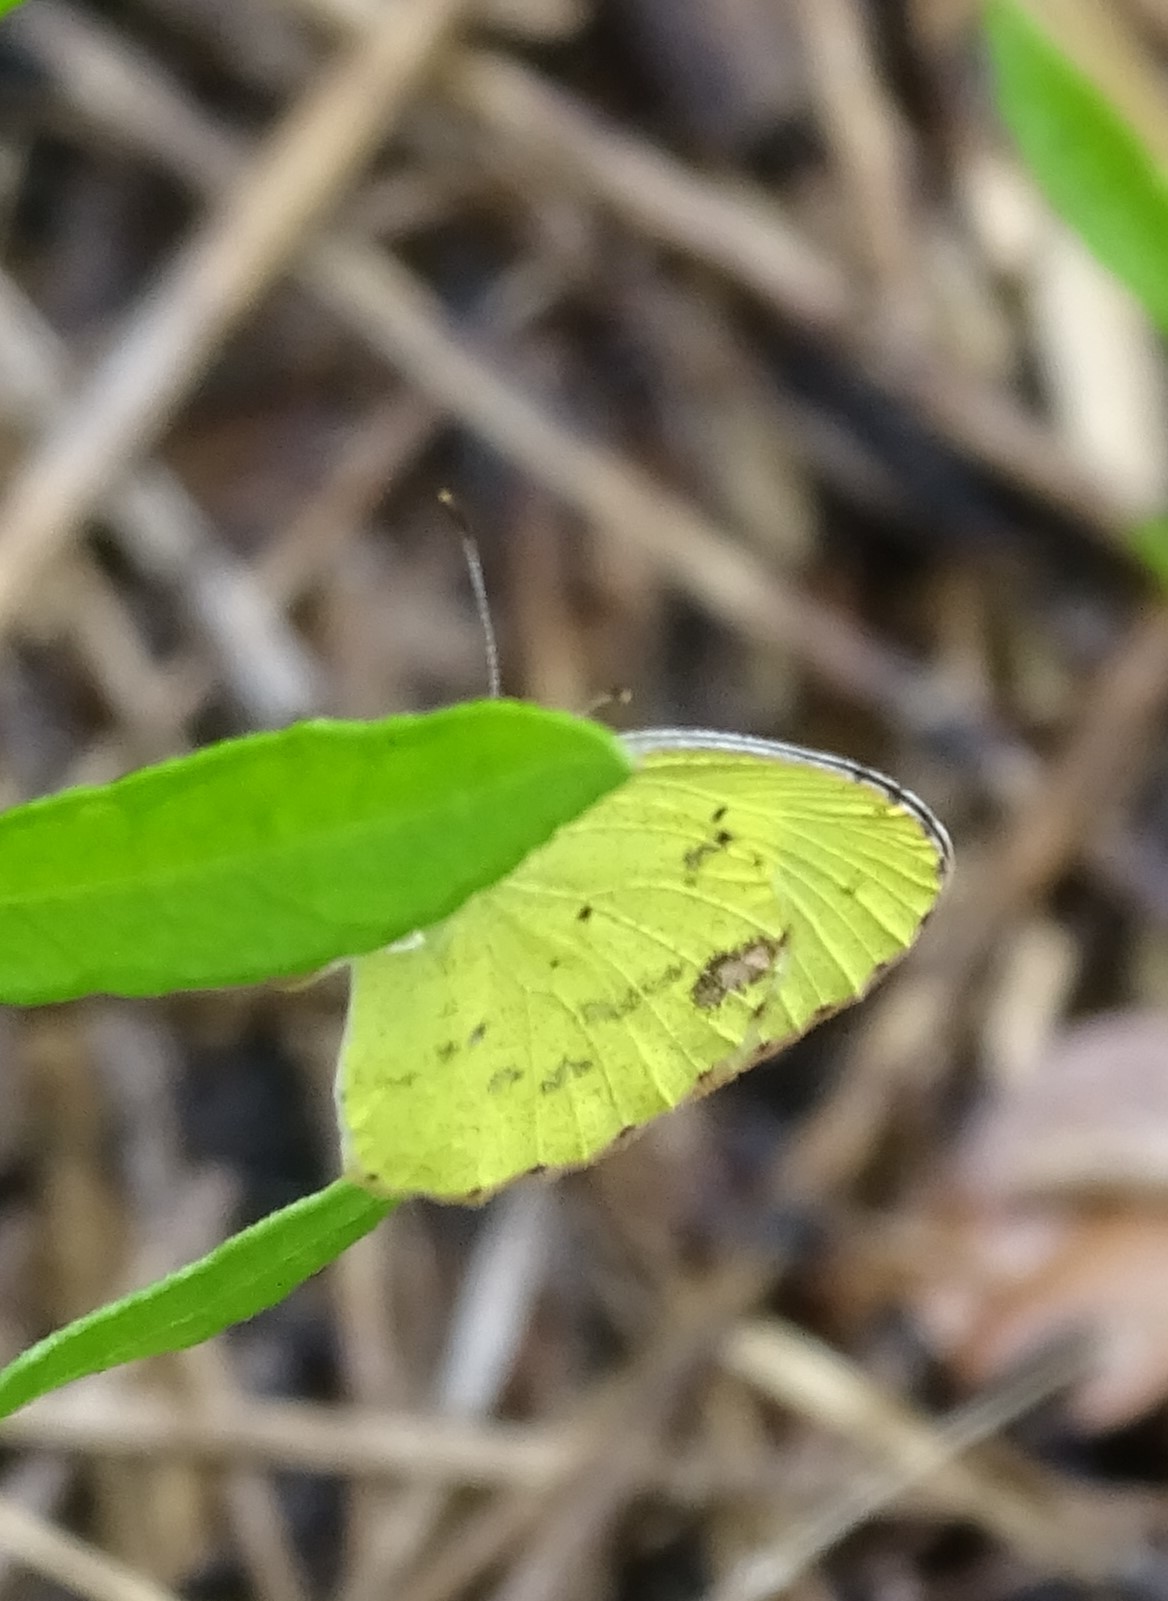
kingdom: Animalia
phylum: Arthropoda
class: Insecta
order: Lepidoptera
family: Pieridae
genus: Pyrisitia
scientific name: Pyrisitia lisa
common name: Little yellow
